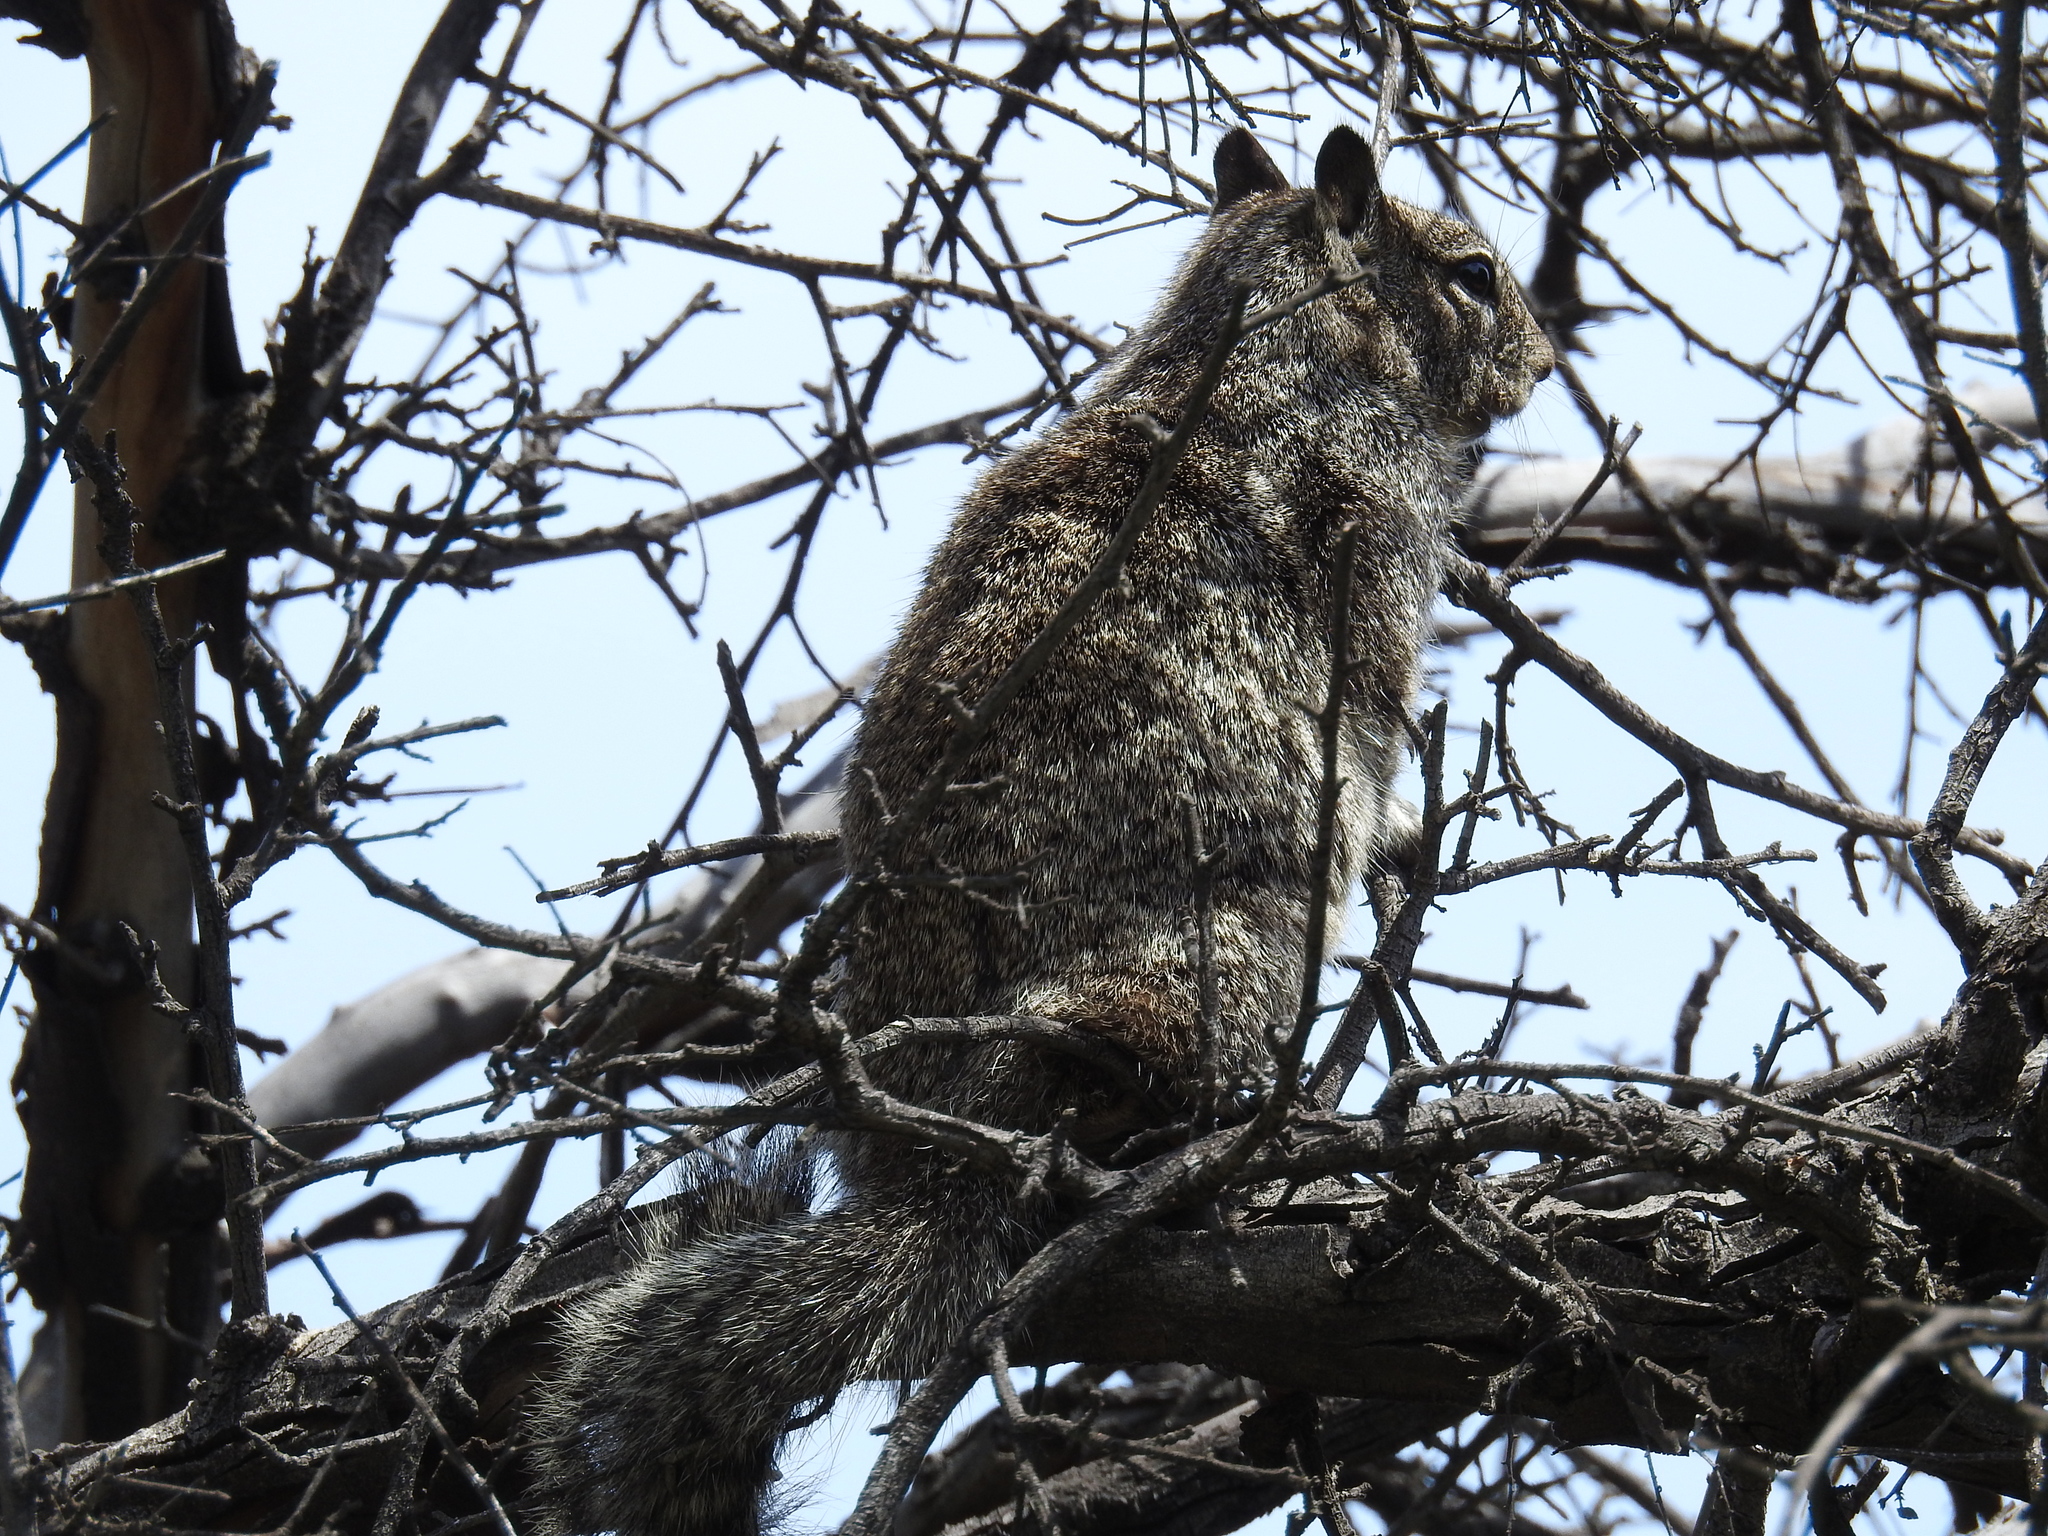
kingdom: Animalia
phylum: Chordata
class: Mammalia
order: Rodentia
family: Sciuridae
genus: Otospermophilus
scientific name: Otospermophilus beecheyi
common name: California ground squirrel
